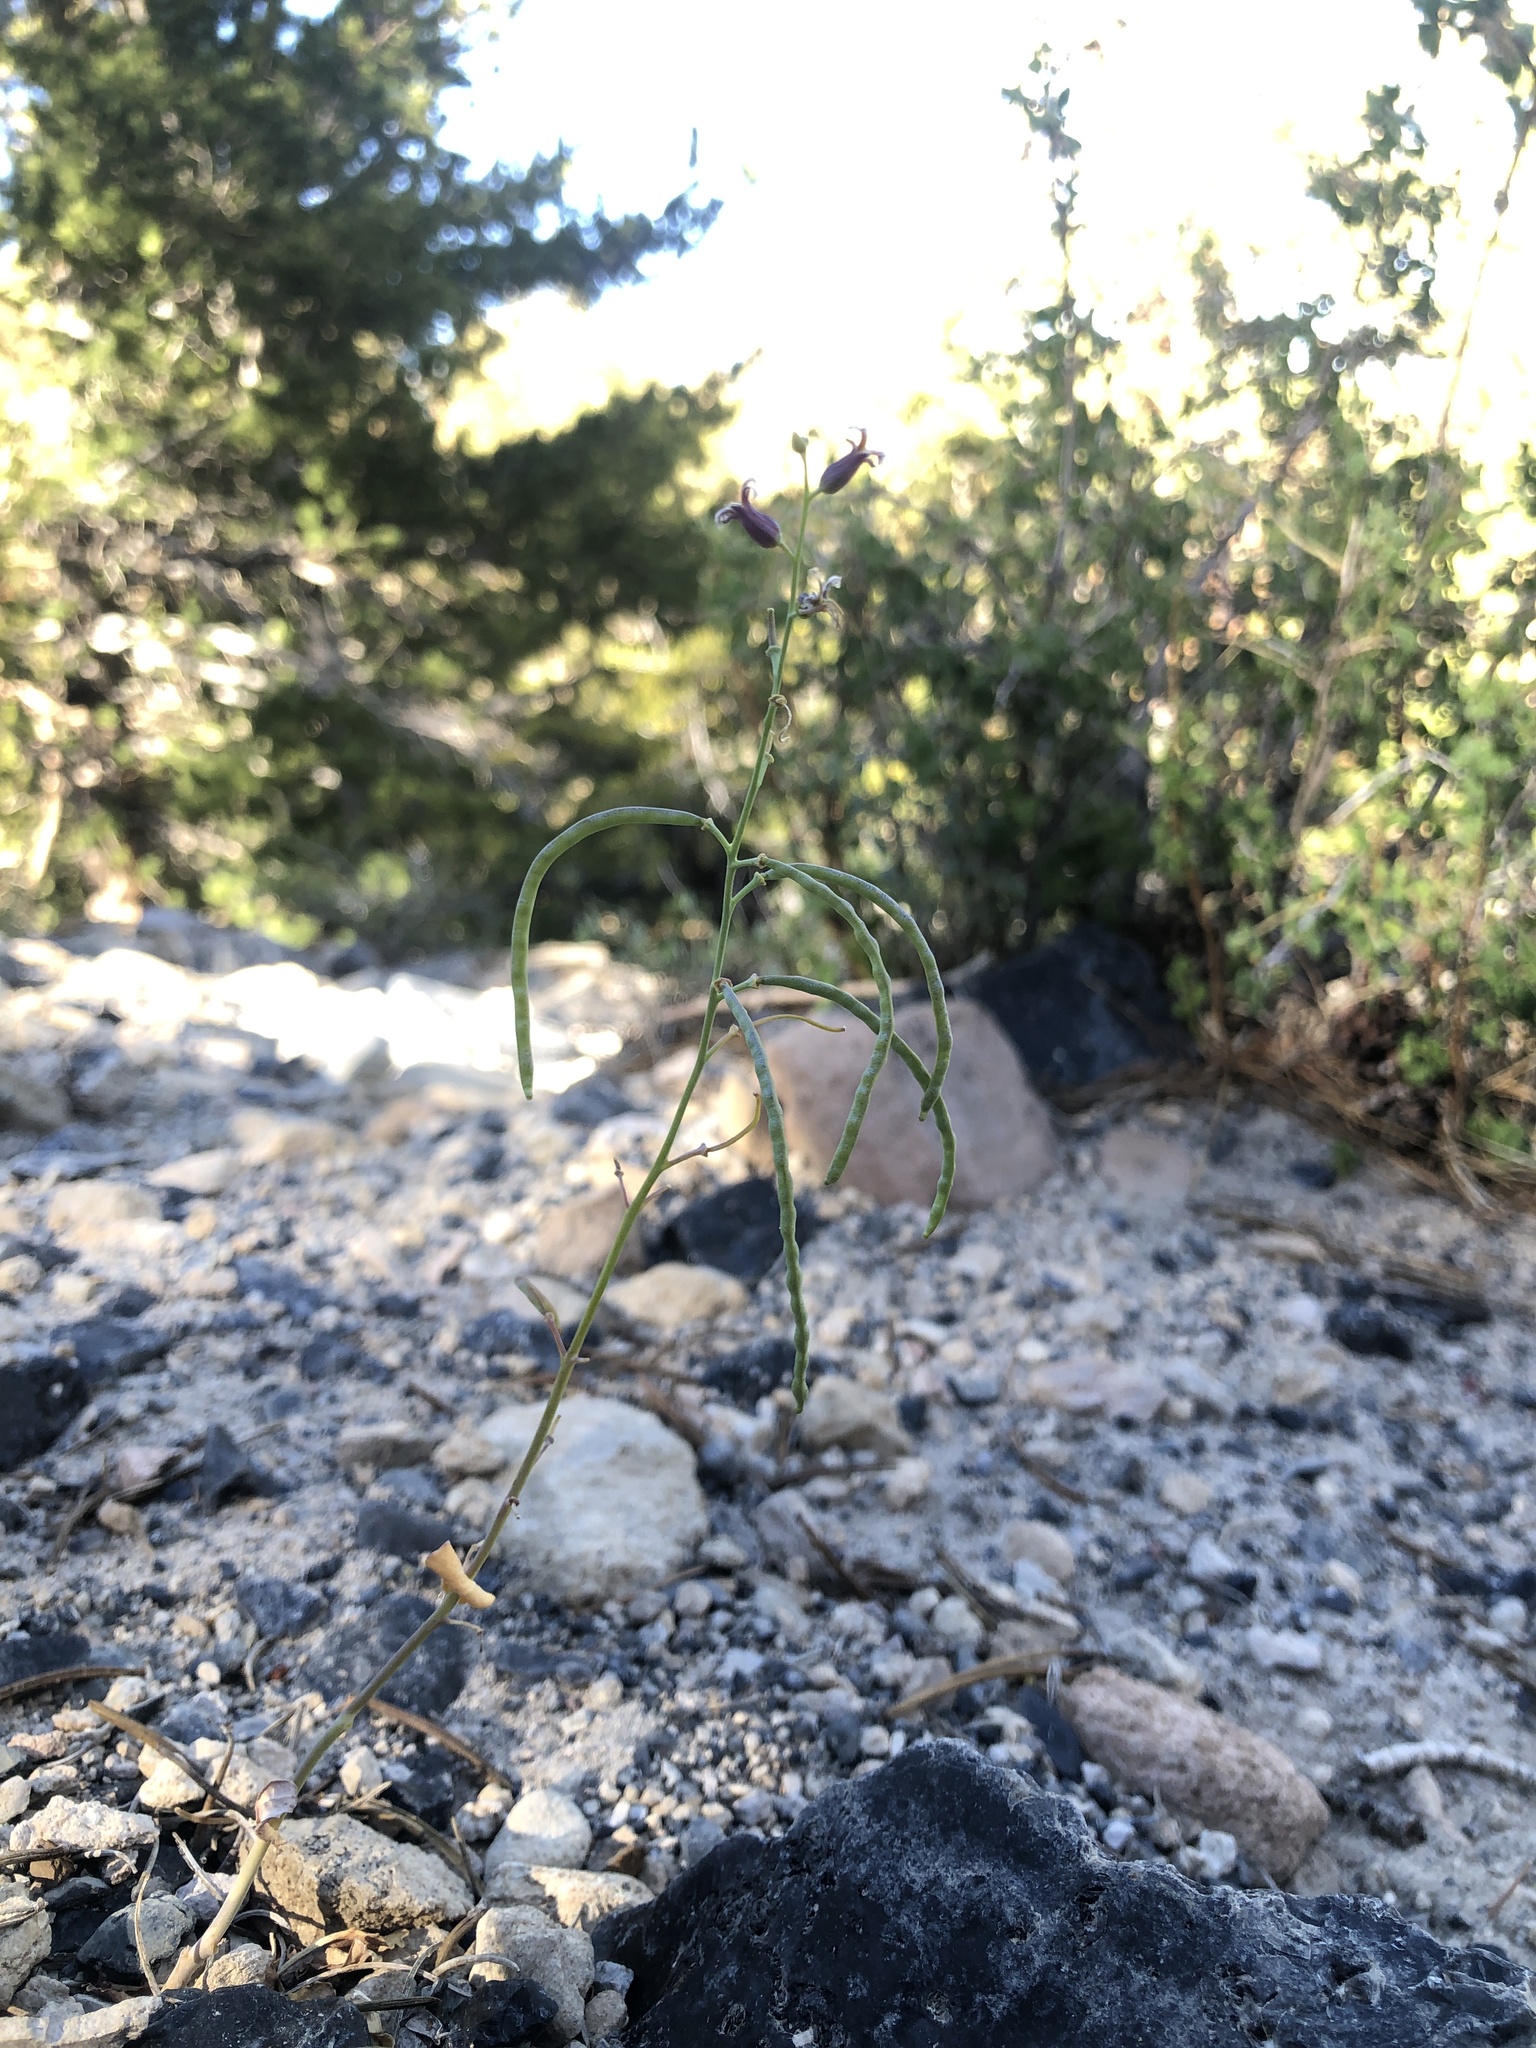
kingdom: Plantae
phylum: Tracheophyta
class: Magnoliopsida
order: Brassicales
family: Brassicaceae
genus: Streptanthus
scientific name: Streptanthus tortuosus
